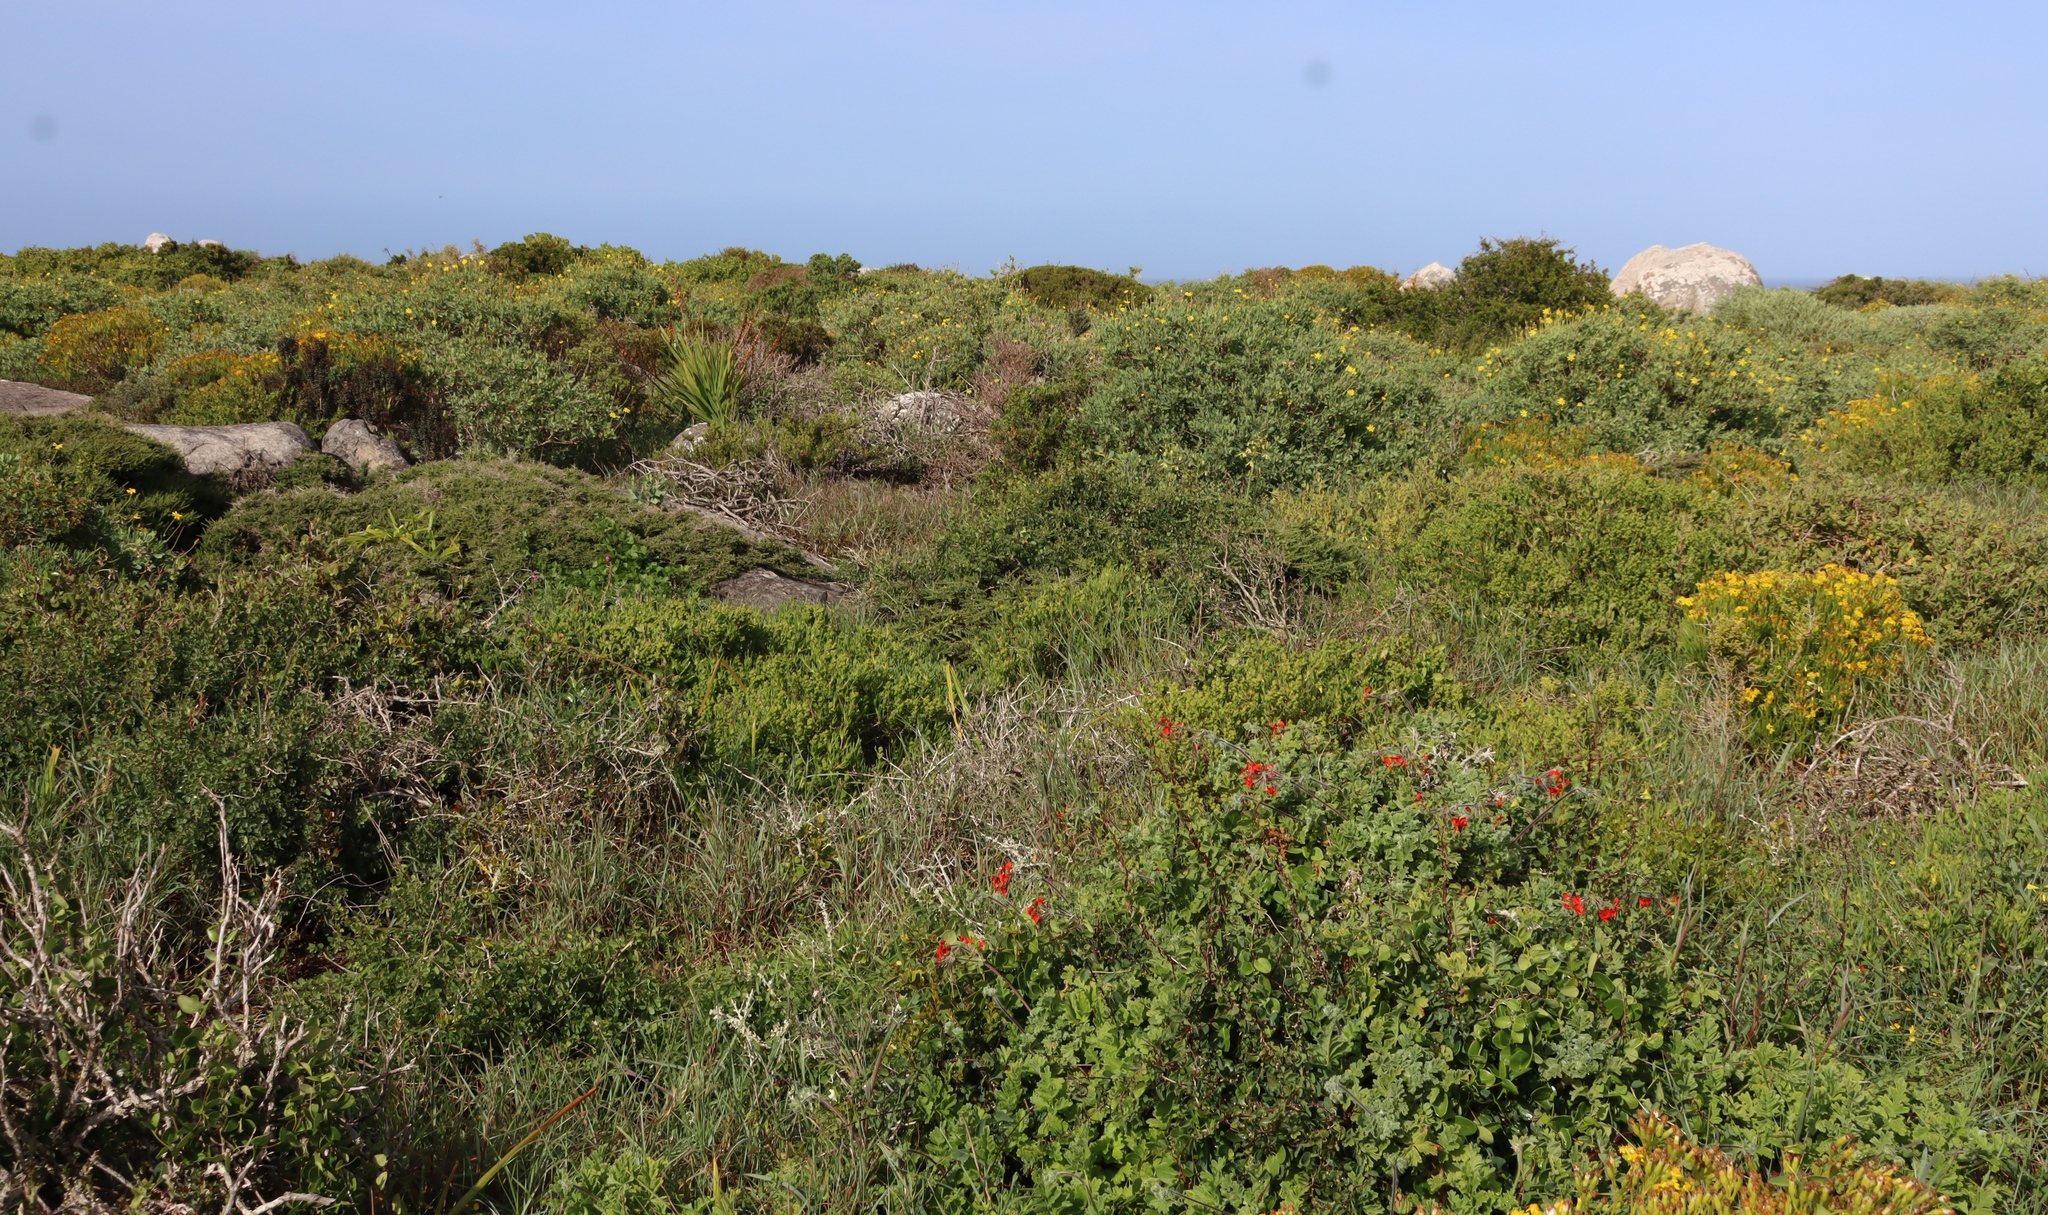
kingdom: Plantae
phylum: Tracheophyta
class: Magnoliopsida
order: Geraniales
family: Geraniaceae
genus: Pelargonium
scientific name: Pelargonium fulgidum
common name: Celandine-leaf pelargonium
